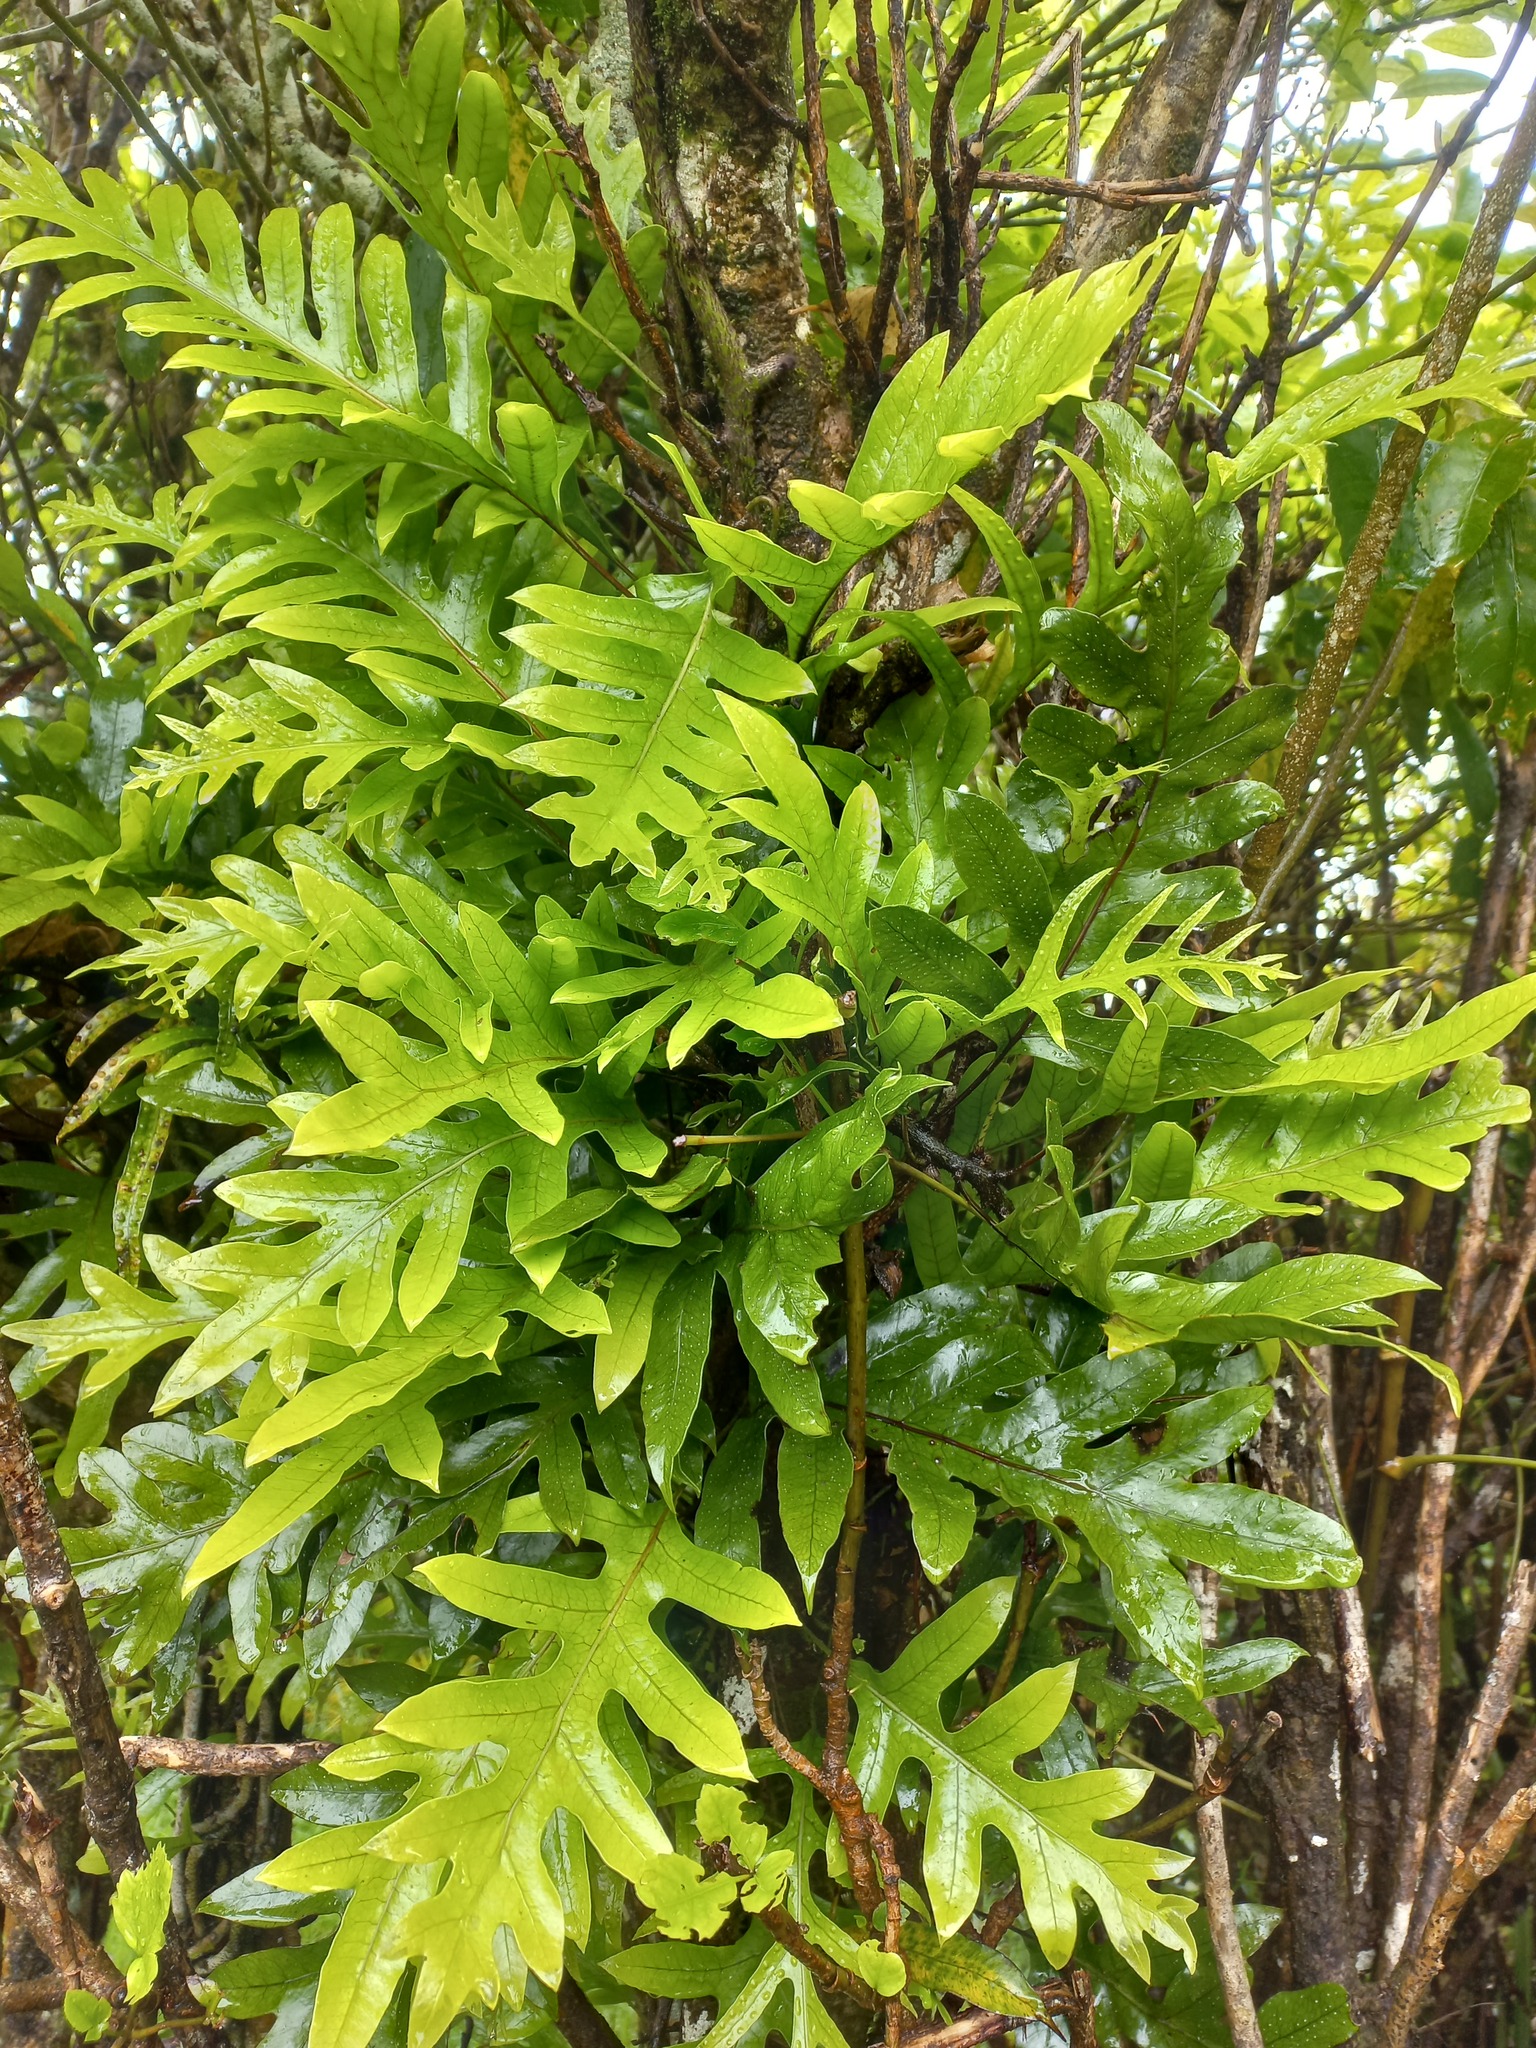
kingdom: Plantae
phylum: Tracheophyta
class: Polypodiopsida
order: Polypodiales
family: Polypodiaceae
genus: Lecanopteris
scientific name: Lecanopteris pustulata
